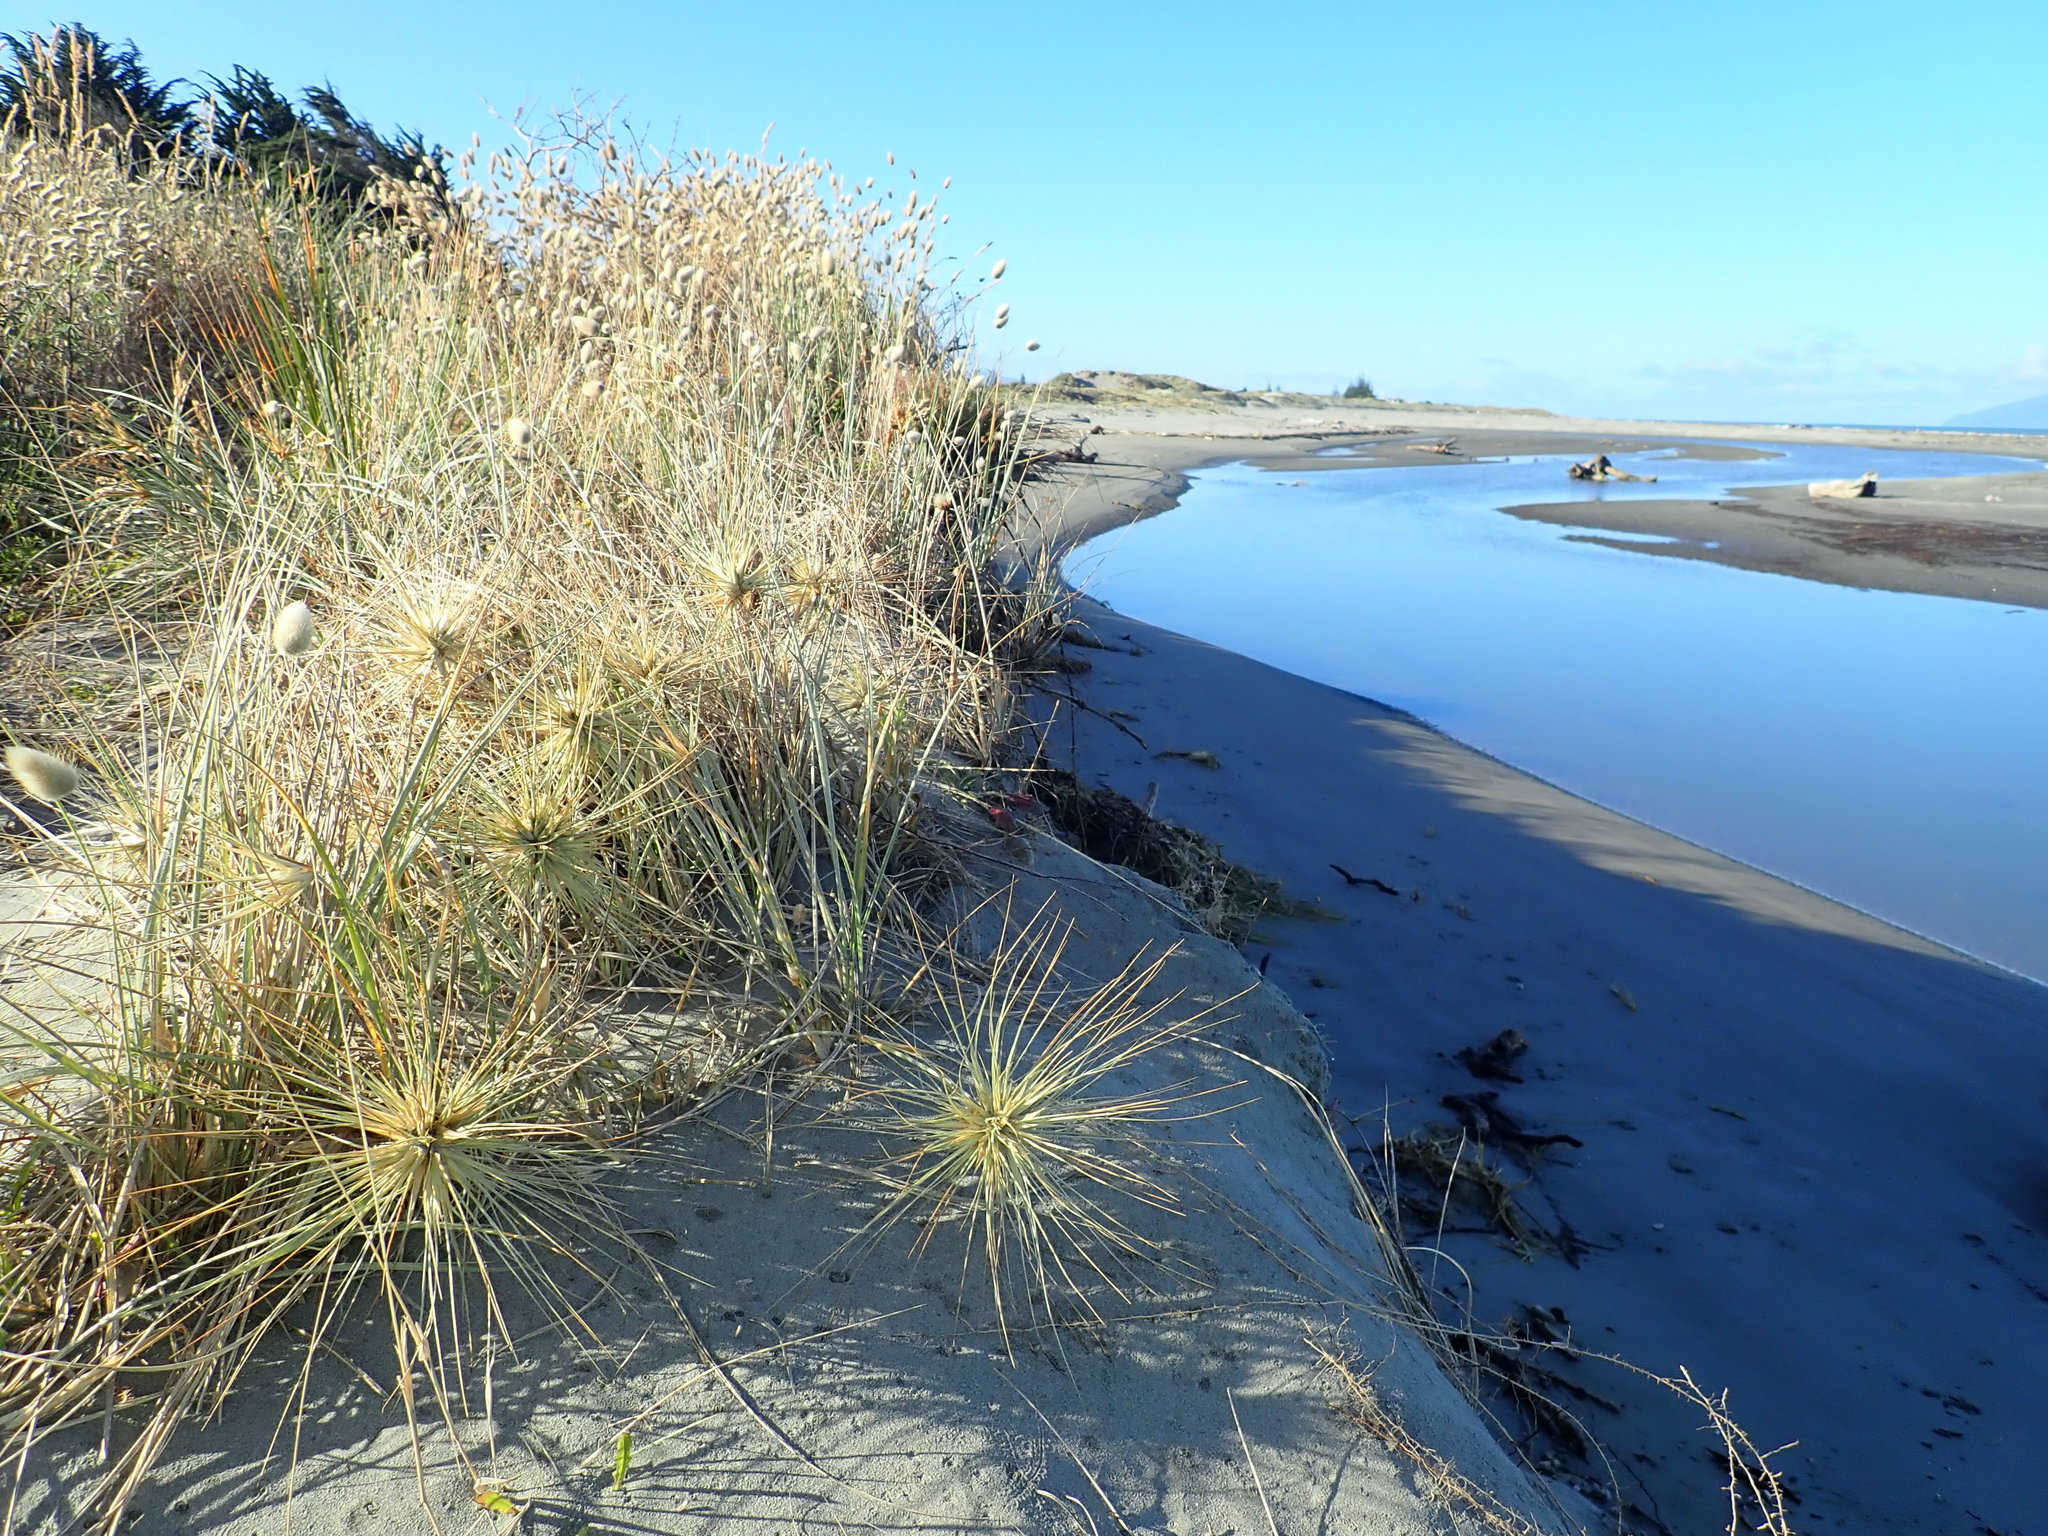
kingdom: Plantae
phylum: Tracheophyta
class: Liliopsida
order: Poales
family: Poaceae
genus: Spinifex
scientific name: Spinifex sericeus
